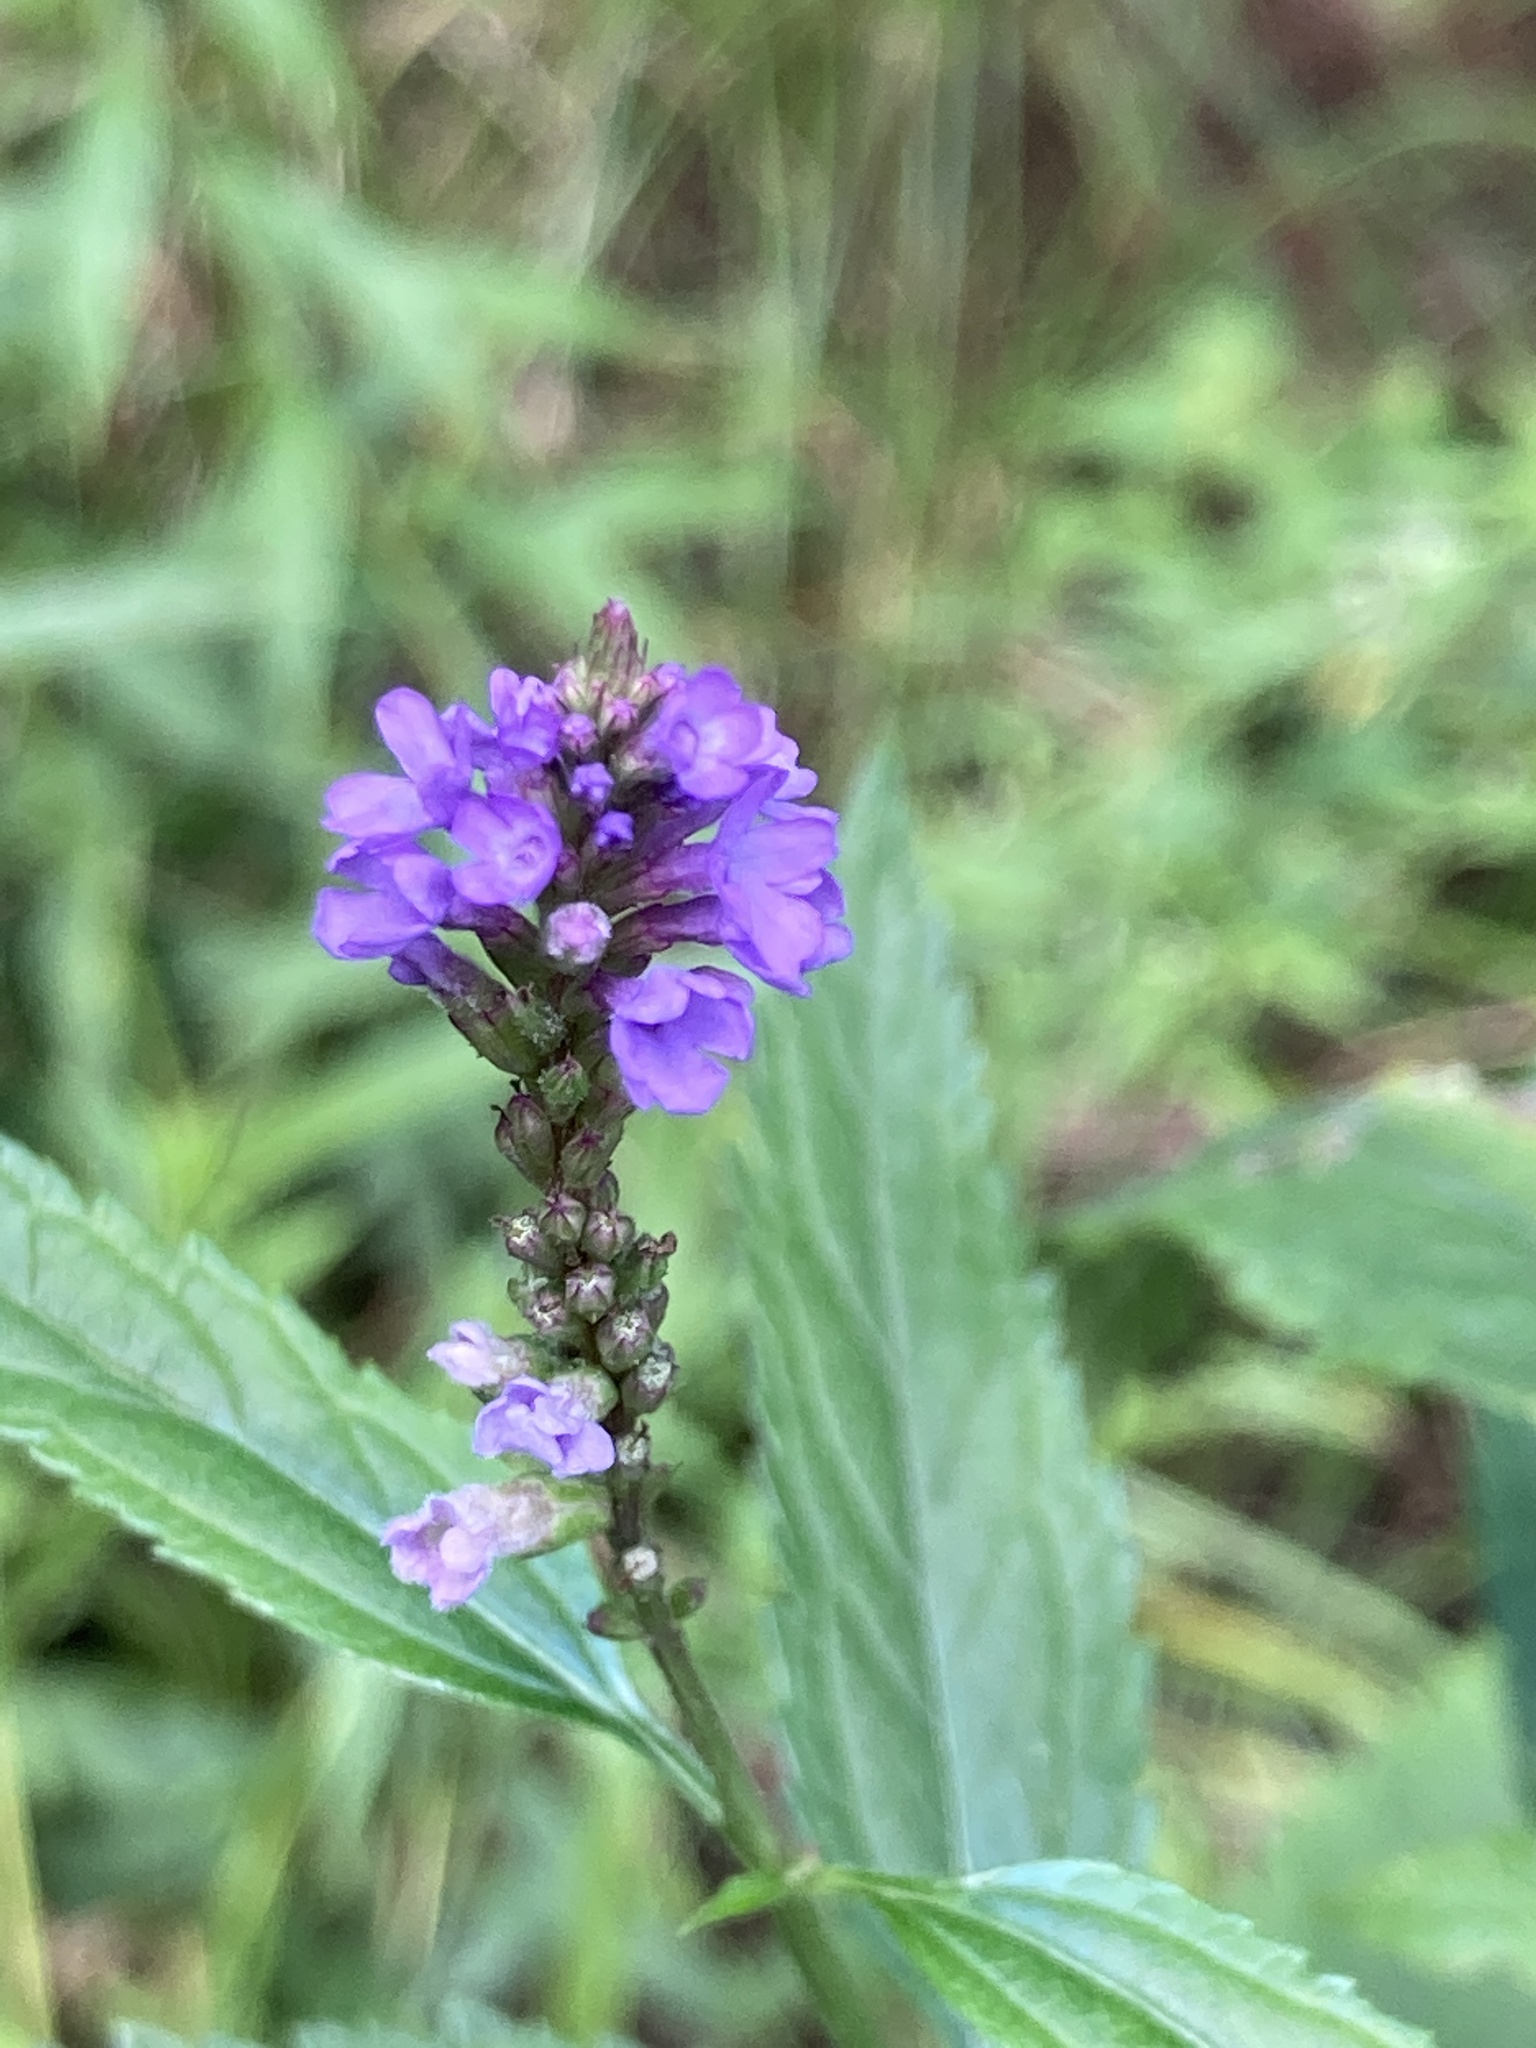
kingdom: Plantae
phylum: Tracheophyta
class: Magnoliopsida
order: Lamiales
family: Verbenaceae
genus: Verbena
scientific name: Verbena hastata
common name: American blue vervain
